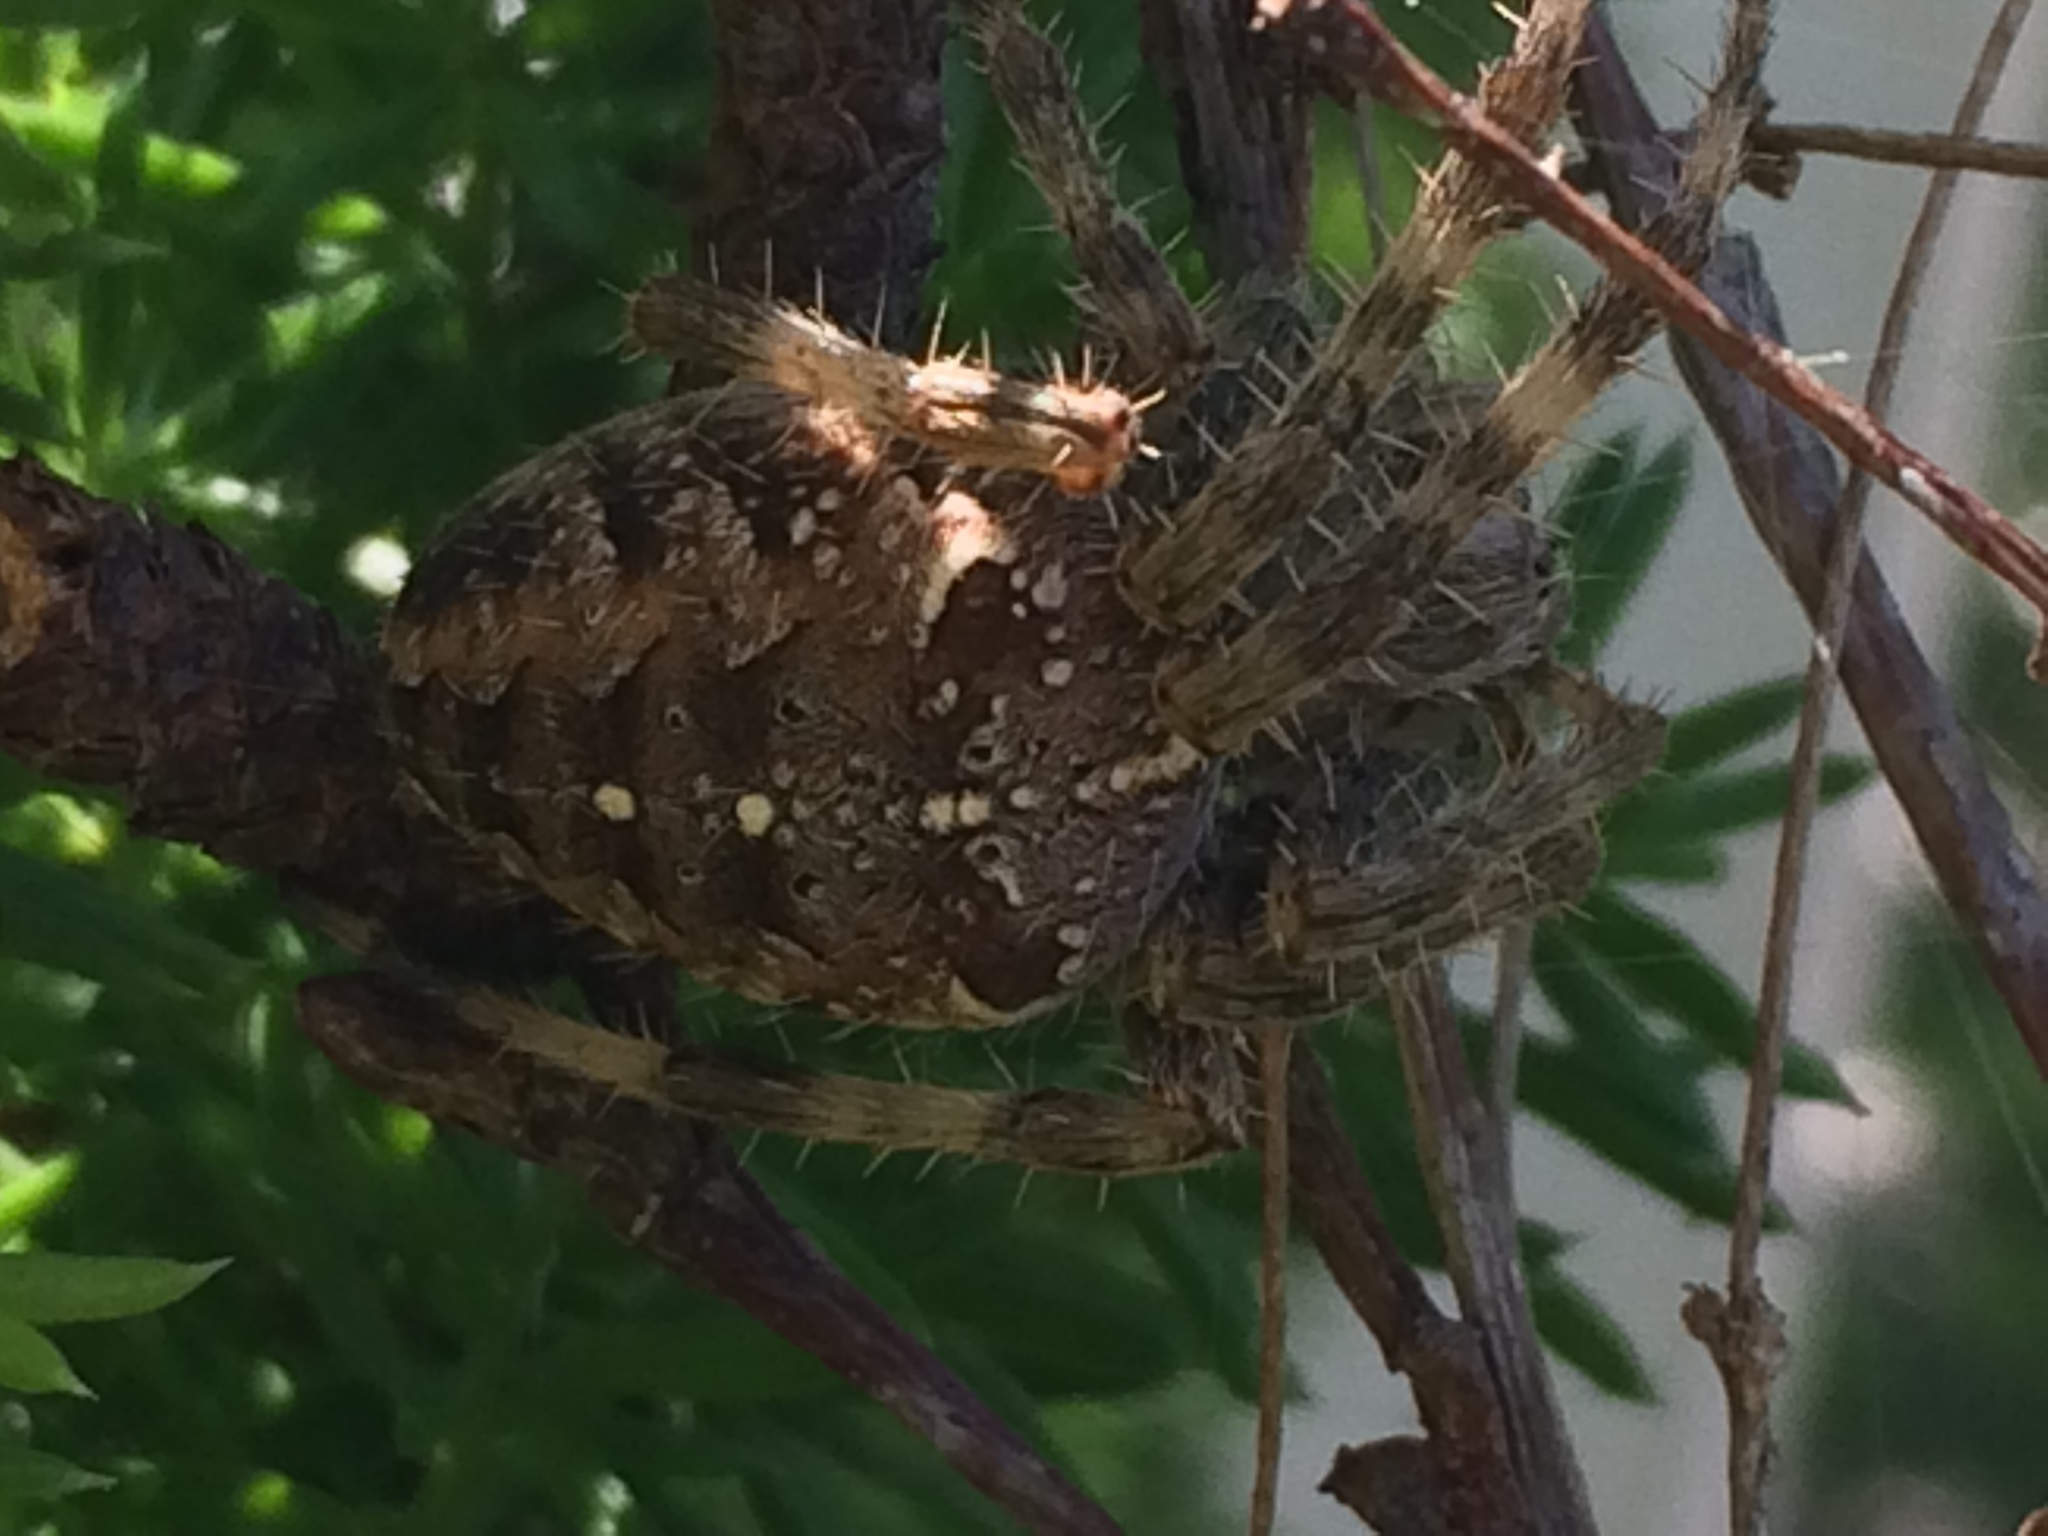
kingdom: Animalia
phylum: Arthropoda
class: Arachnida
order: Araneae
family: Araneidae
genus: Araneus
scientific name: Araneus diadematus
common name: Cross orbweaver
